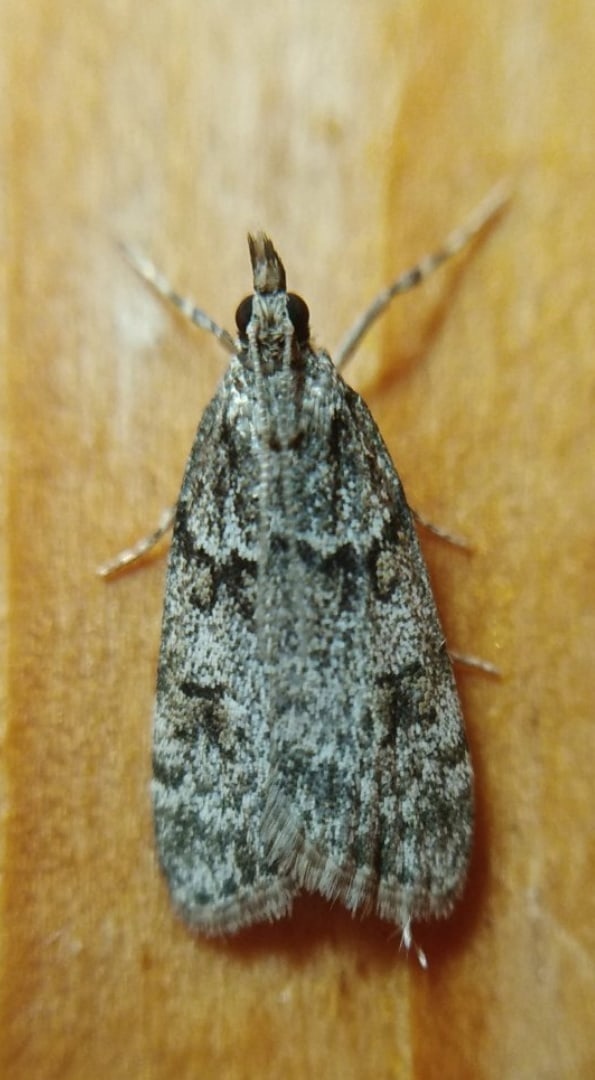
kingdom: Animalia
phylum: Arthropoda
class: Insecta
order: Lepidoptera
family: Crambidae
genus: Scoparia
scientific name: Scoparia ancipitella
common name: Northern grey
